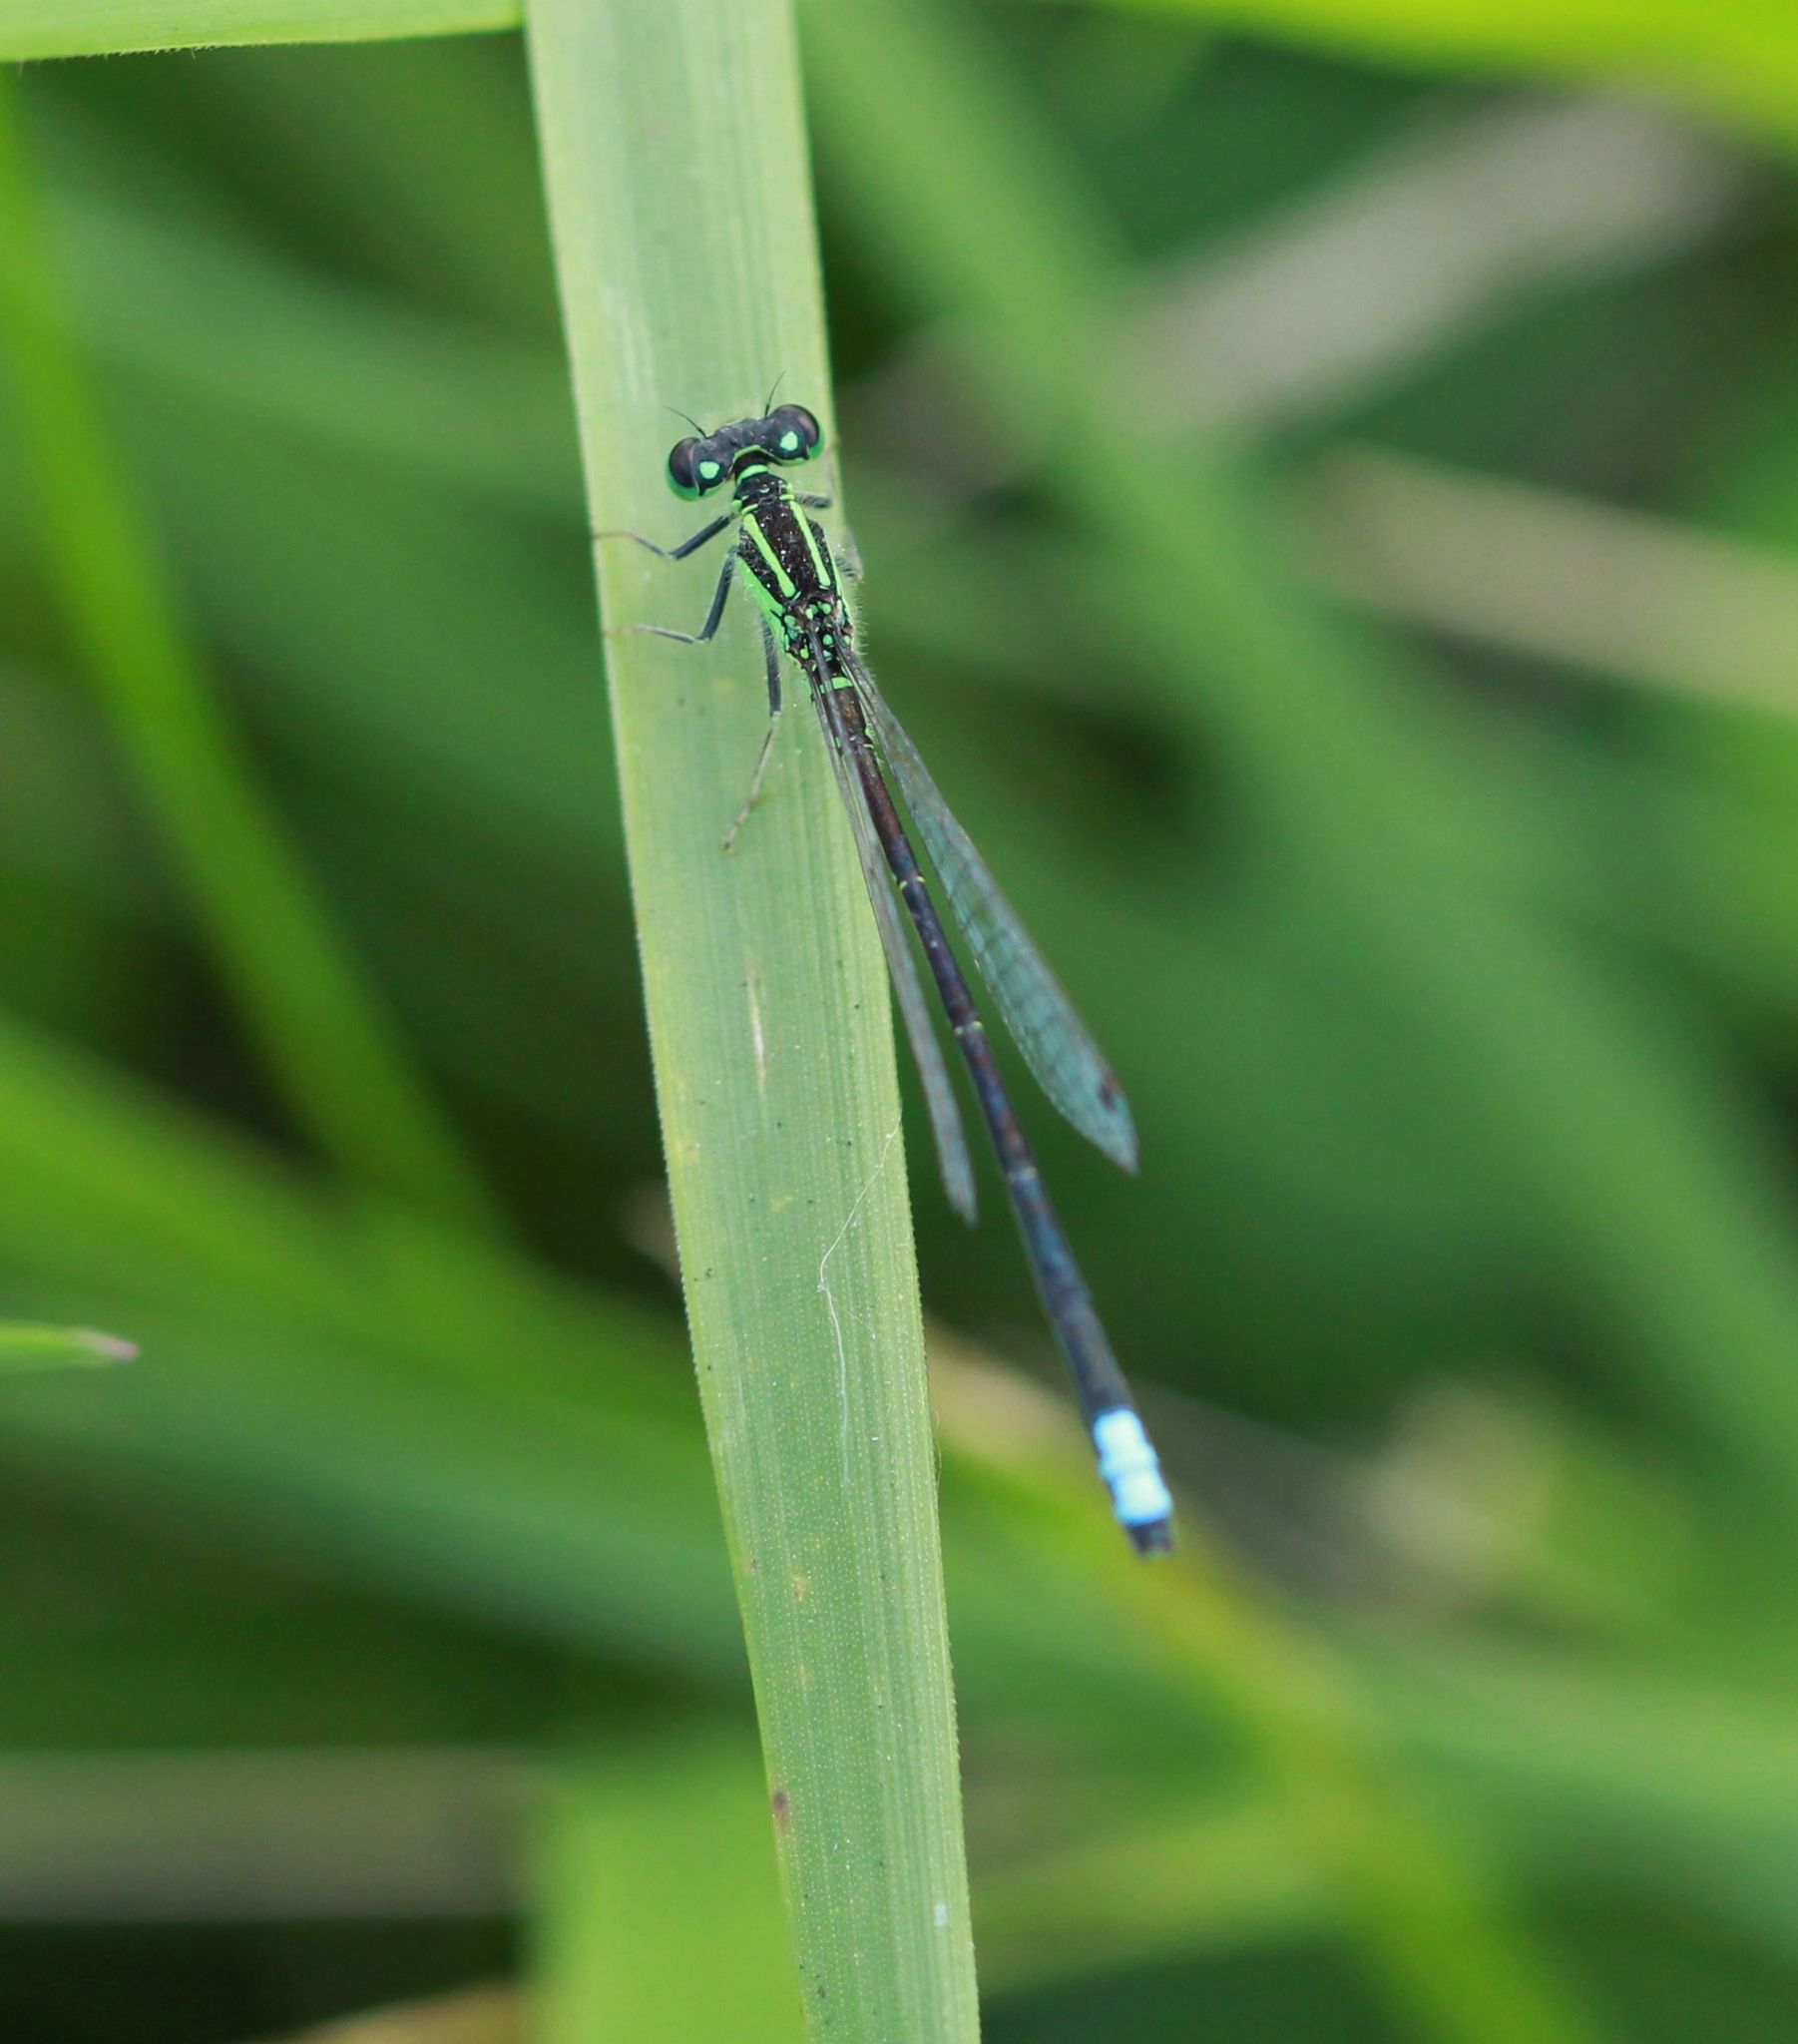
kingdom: Animalia
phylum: Arthropoda
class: Insecta
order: Odonata
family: Coenagrionidae
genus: Ischnura
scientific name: Ischnura verticalis
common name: Eastern forktail
